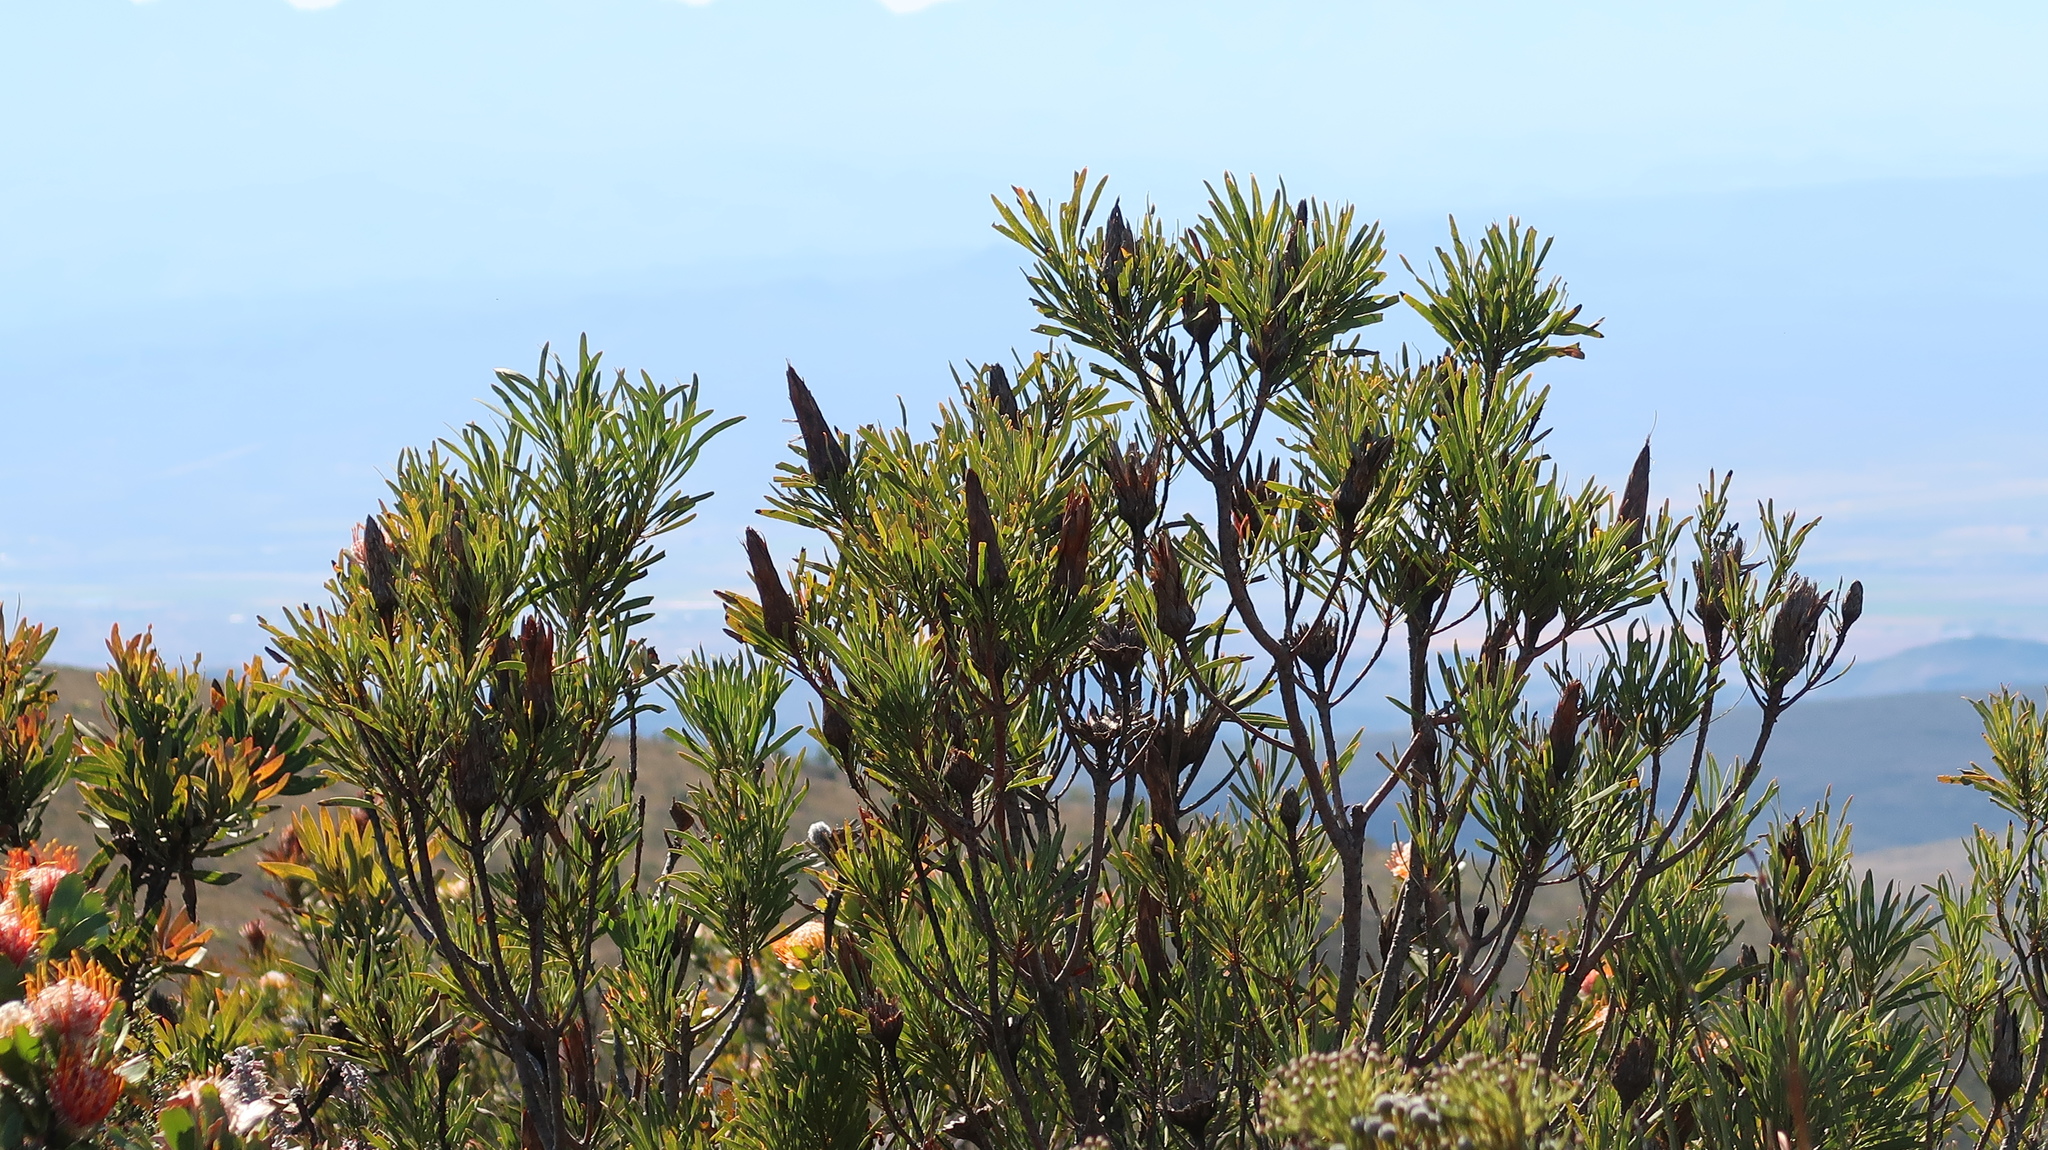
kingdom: Plantae
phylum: Tracheophyta
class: Magnoliopsida
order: Proteales
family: Proteaceae
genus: Protea
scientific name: Protea repens
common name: Sugarbush
